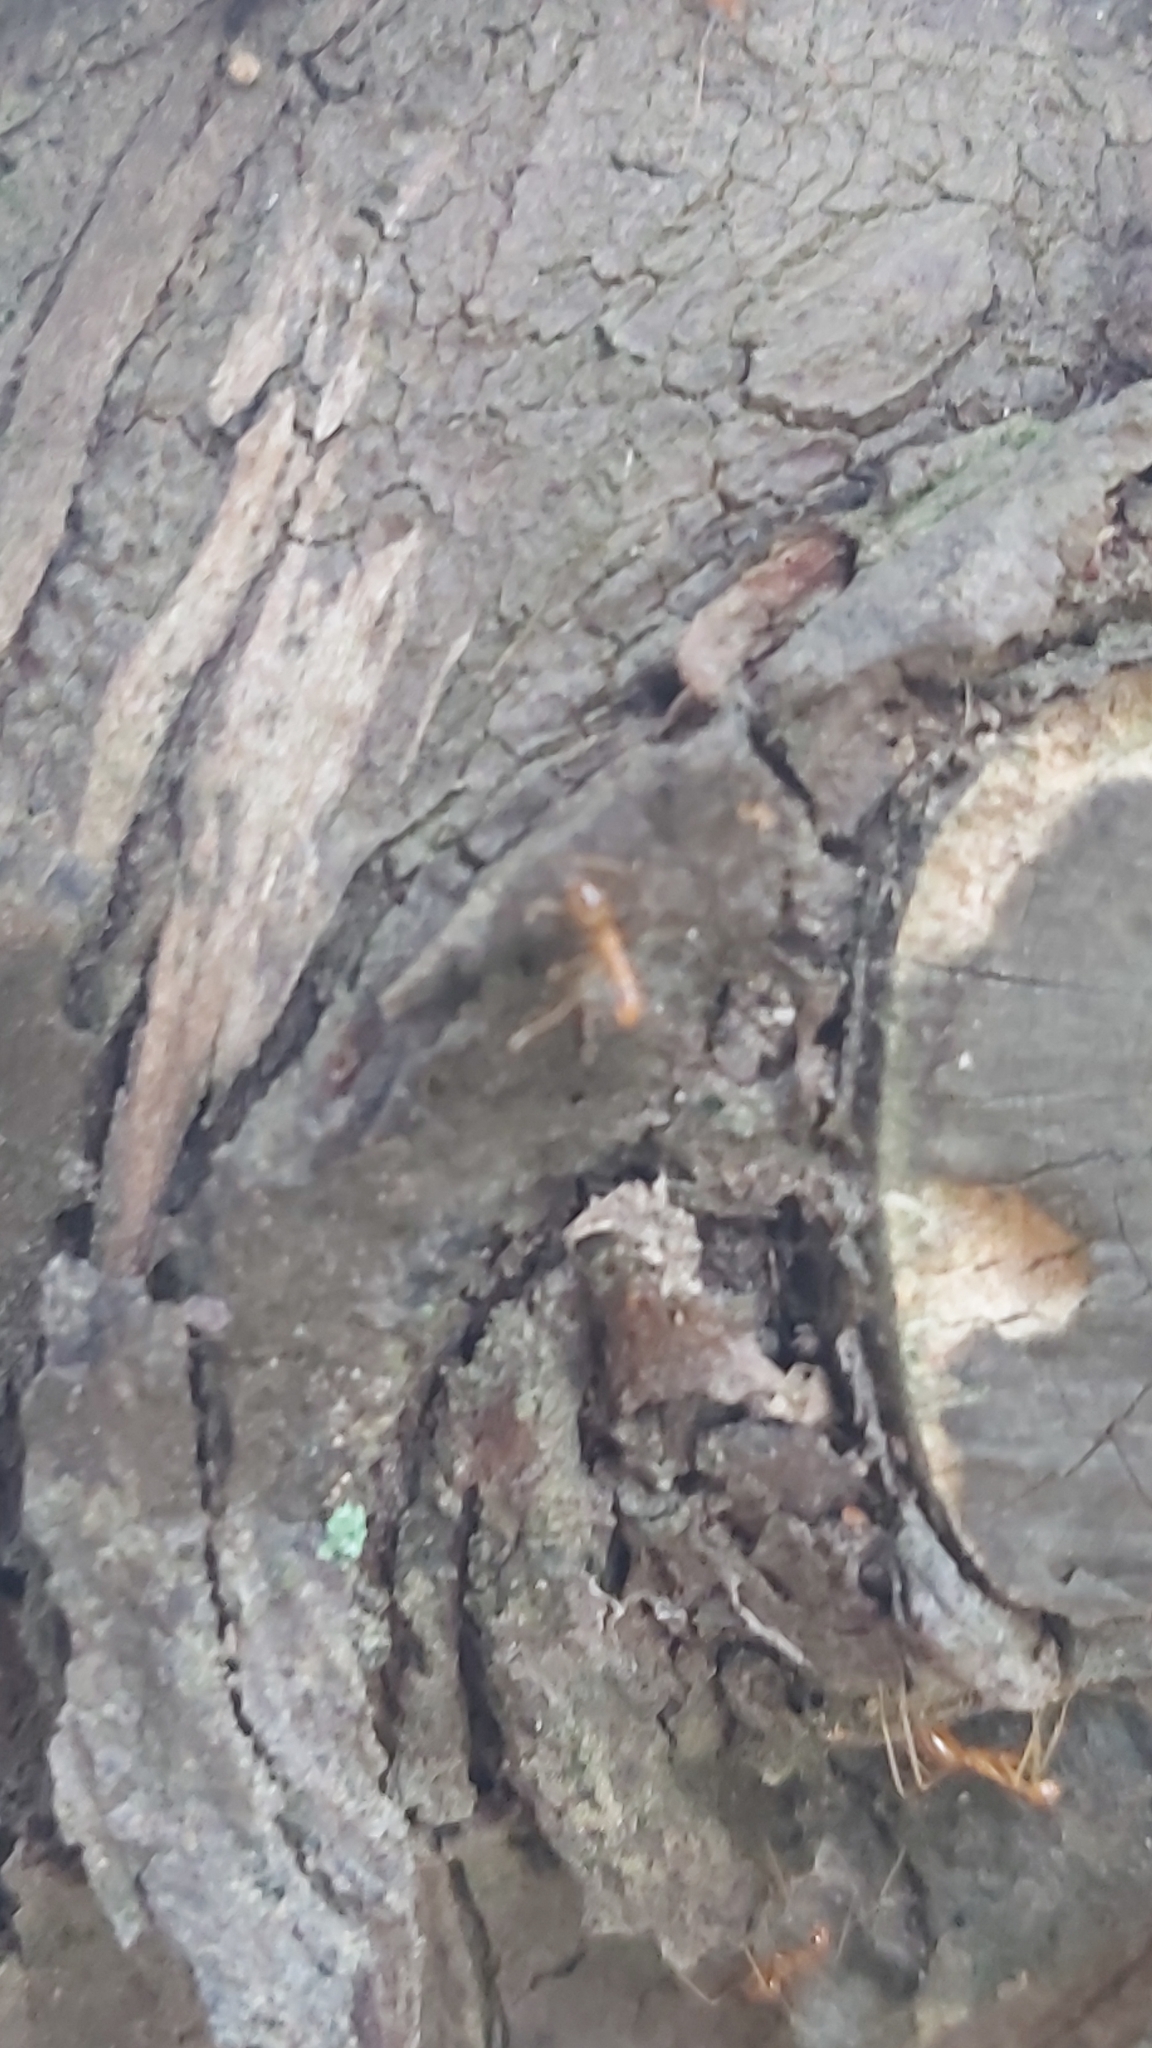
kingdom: Animalia
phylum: Arthropoda
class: Insecta
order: Hymenoptera
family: Formicidae
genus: Anoplolepis
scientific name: Anoplolepis gracilipes
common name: Ant
